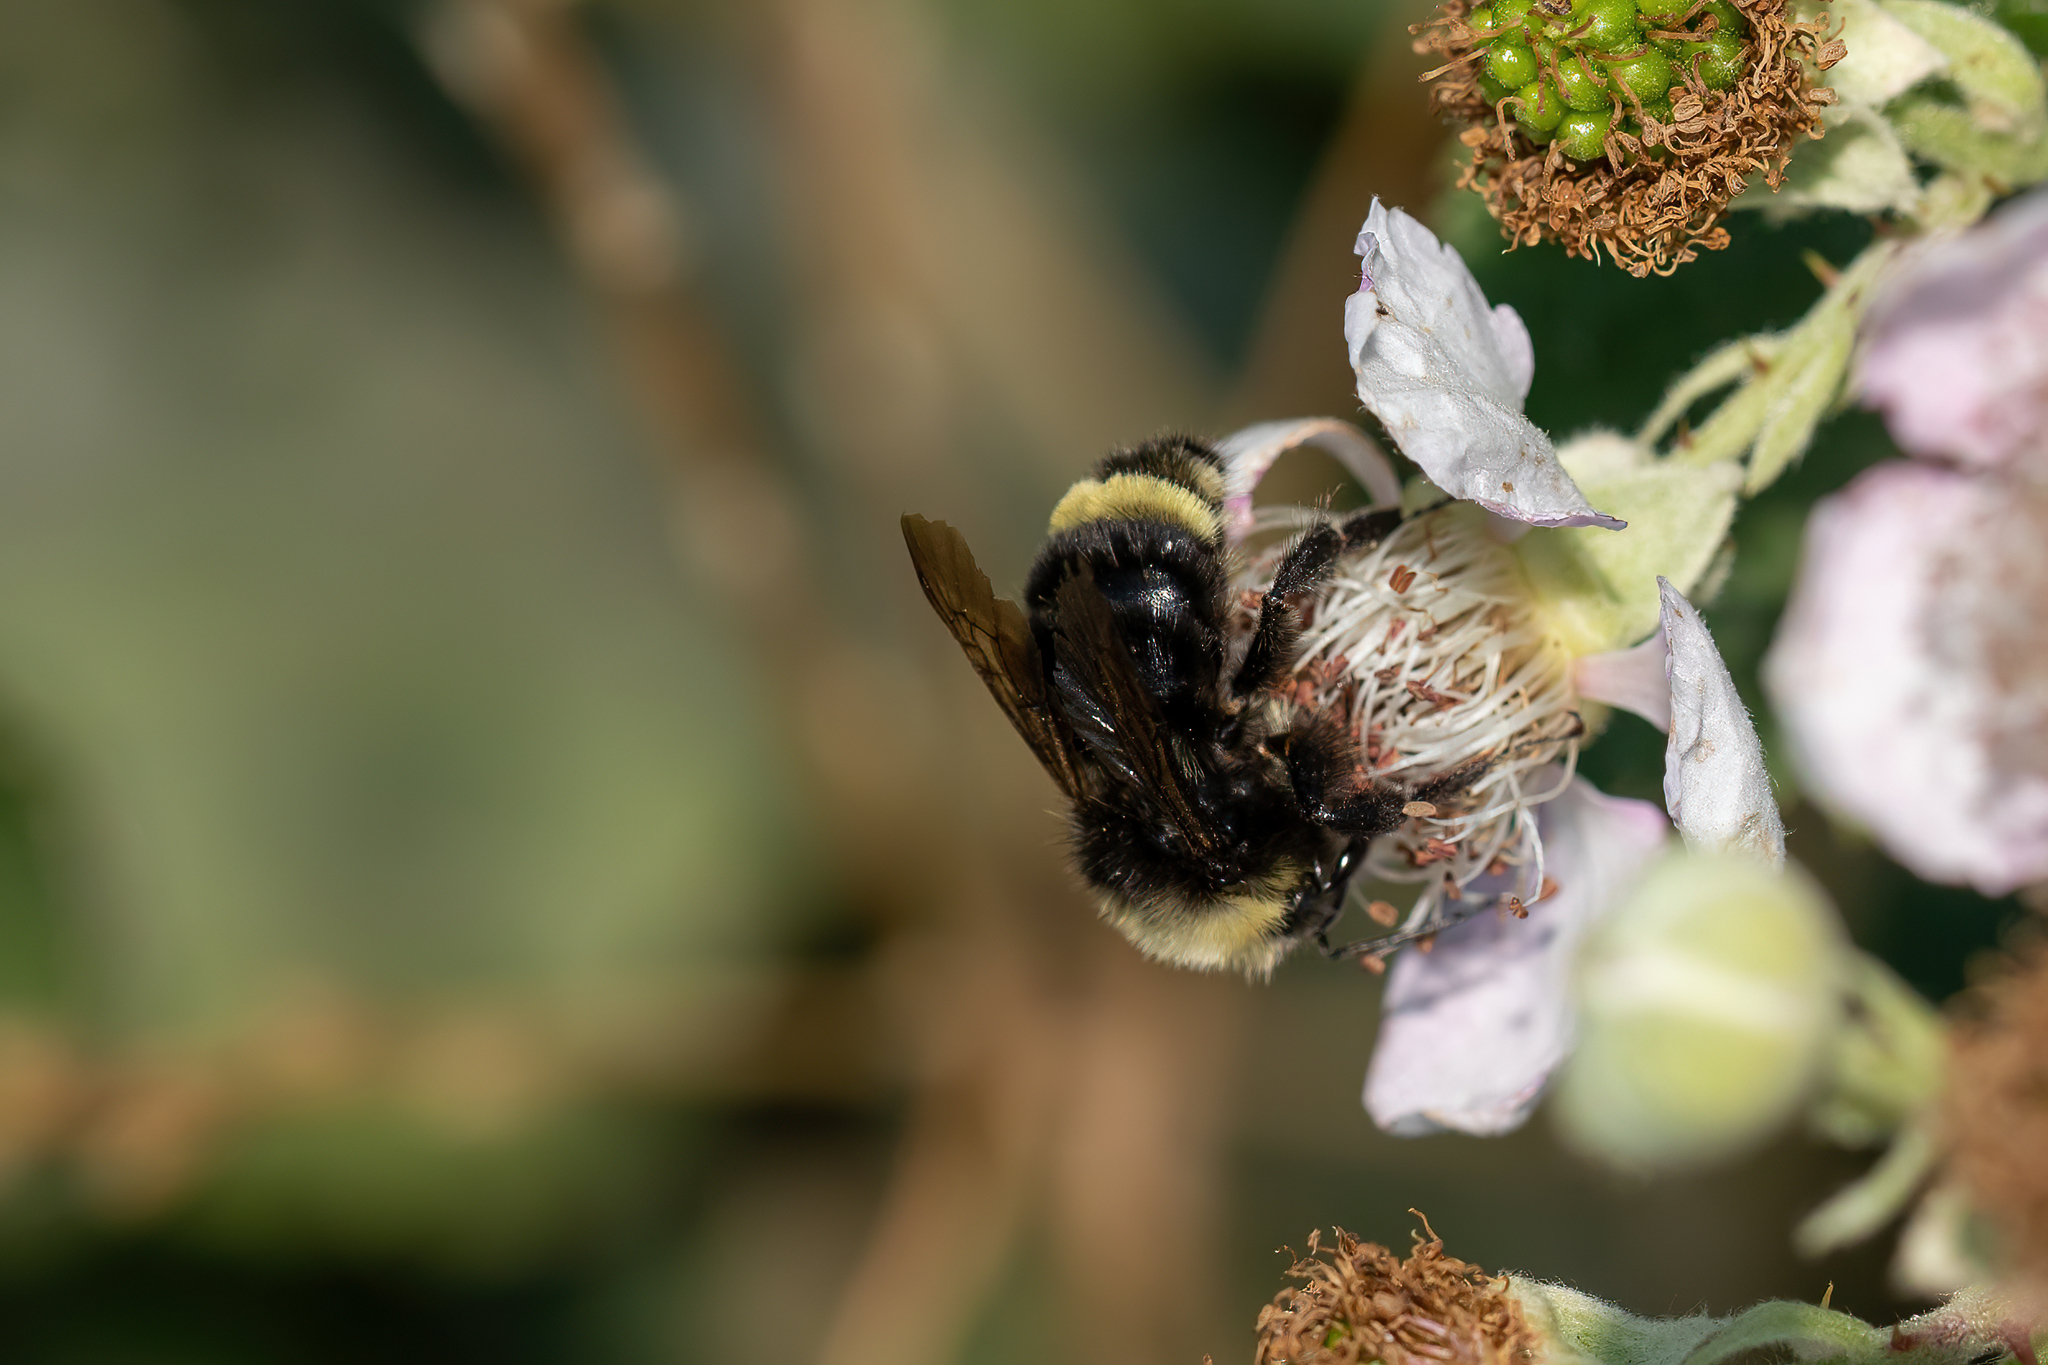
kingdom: Animalia
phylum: Arthropoda
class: Insecta
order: Hymenoptera
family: Apidae
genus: Bombus
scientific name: Bombus vosnesenskii
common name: Vosnesensky bumble bee
